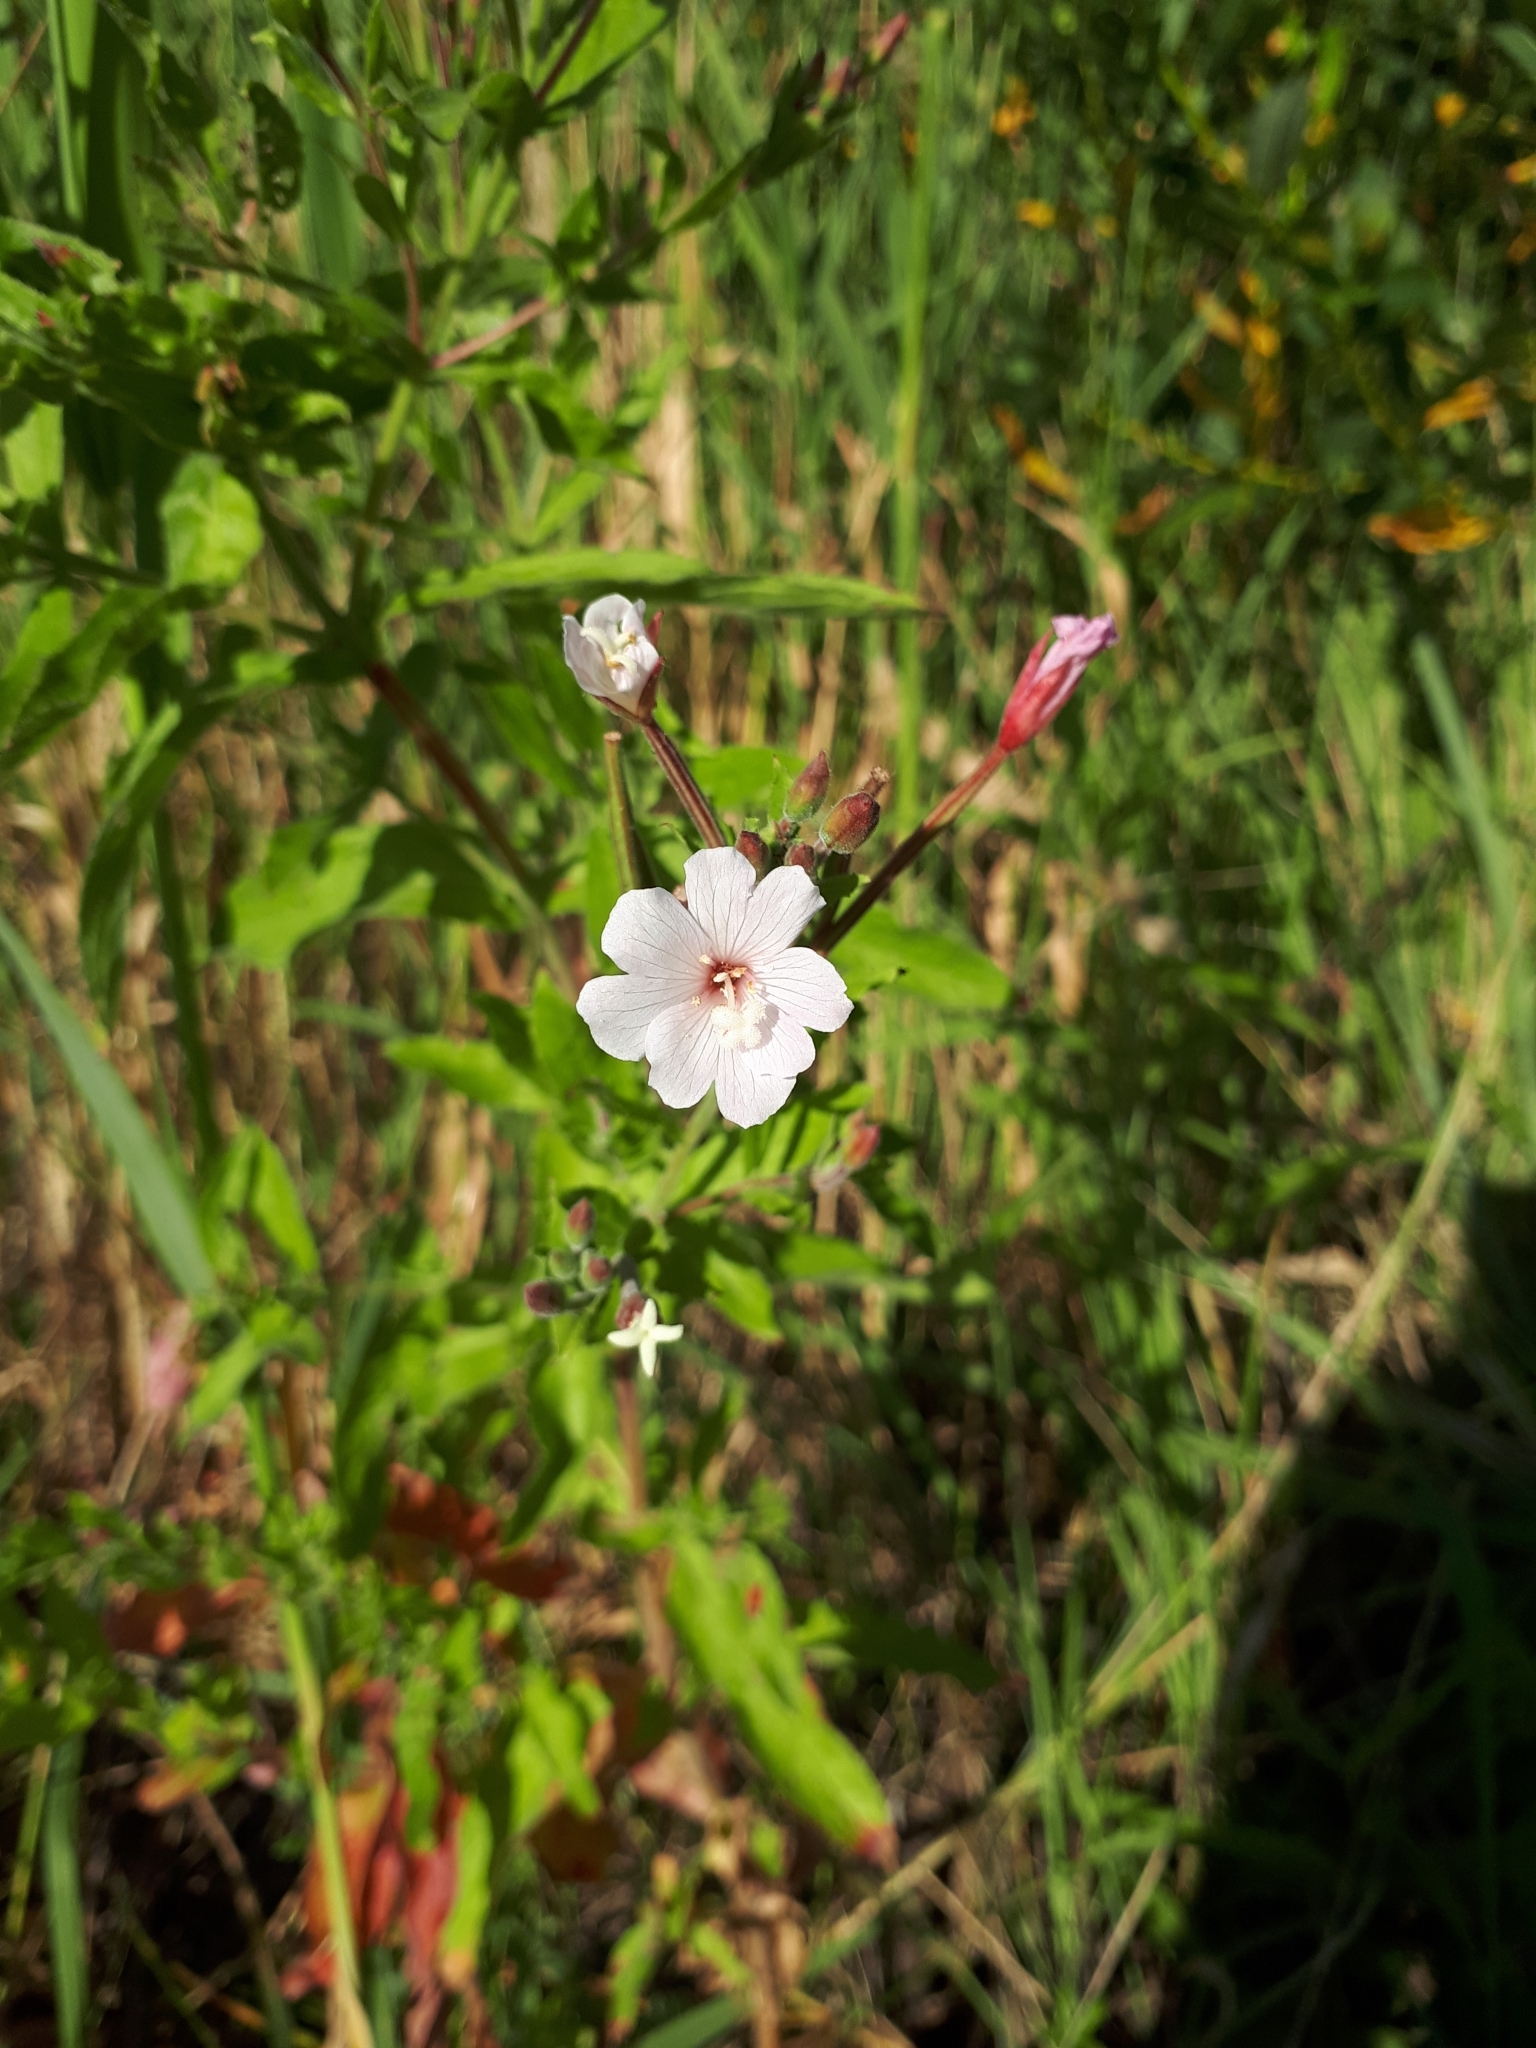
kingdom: Plantae
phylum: Tracheophyta
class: Magnoliopsida
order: Myrtales
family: Onagraceae
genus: Epilobium
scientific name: Epilobium hirsutum
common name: Great willowherb
